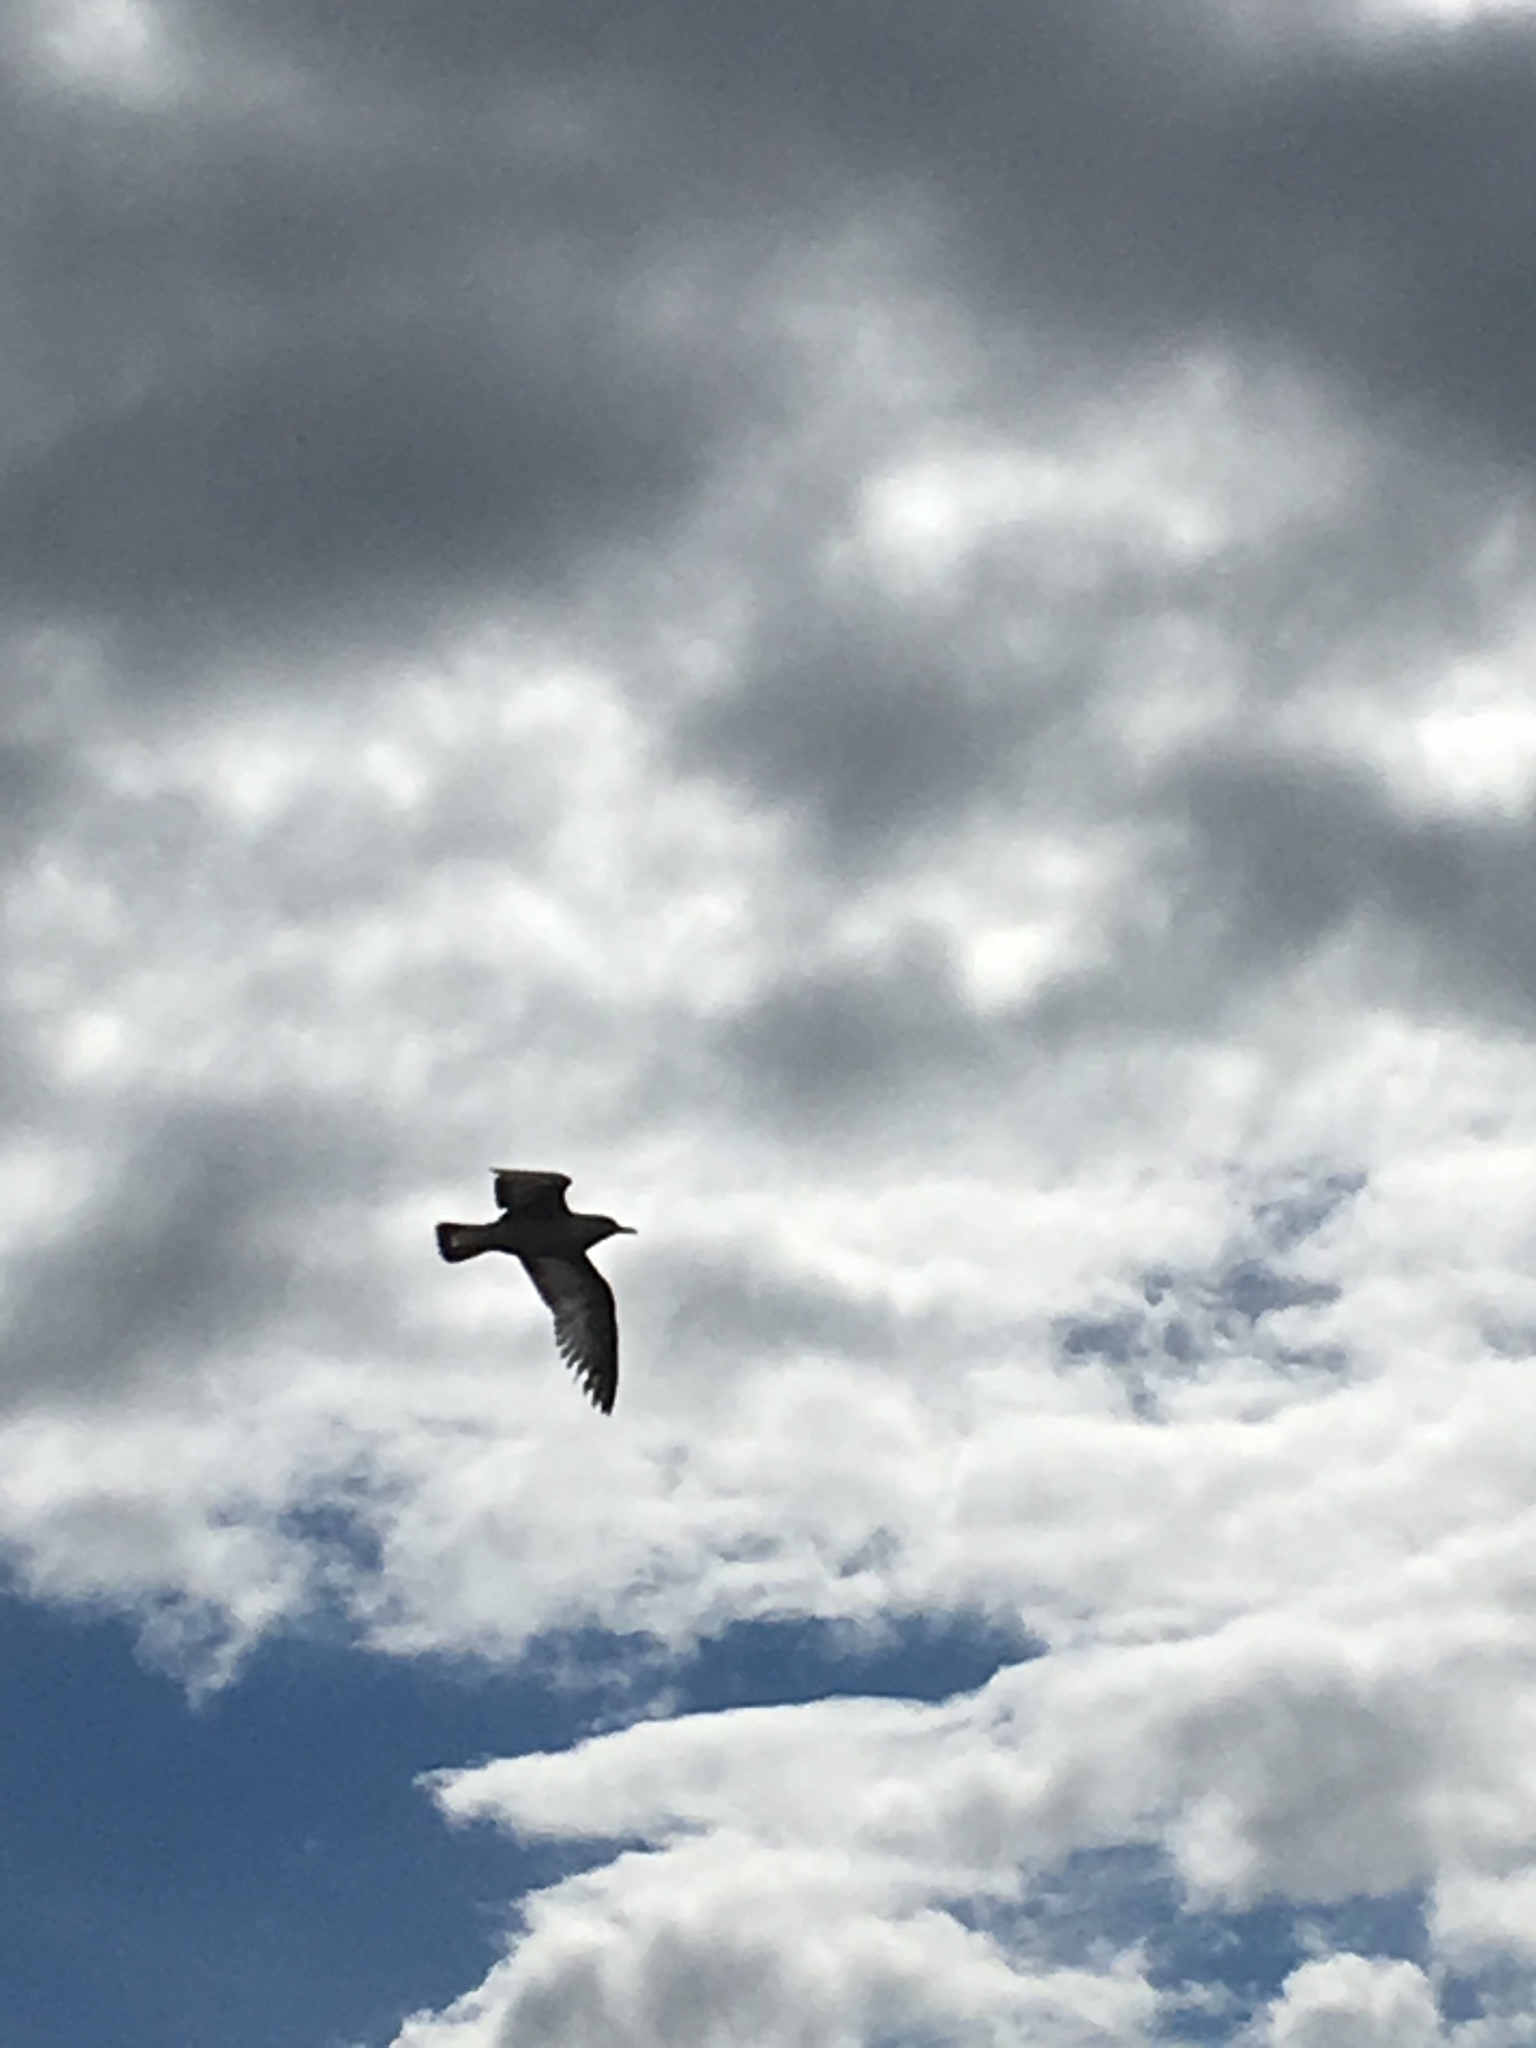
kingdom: Animalia
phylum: Chordata
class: Aves
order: Charadriiformes
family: Laridae
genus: Larus
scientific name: Larus argentatus
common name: Herring gull
